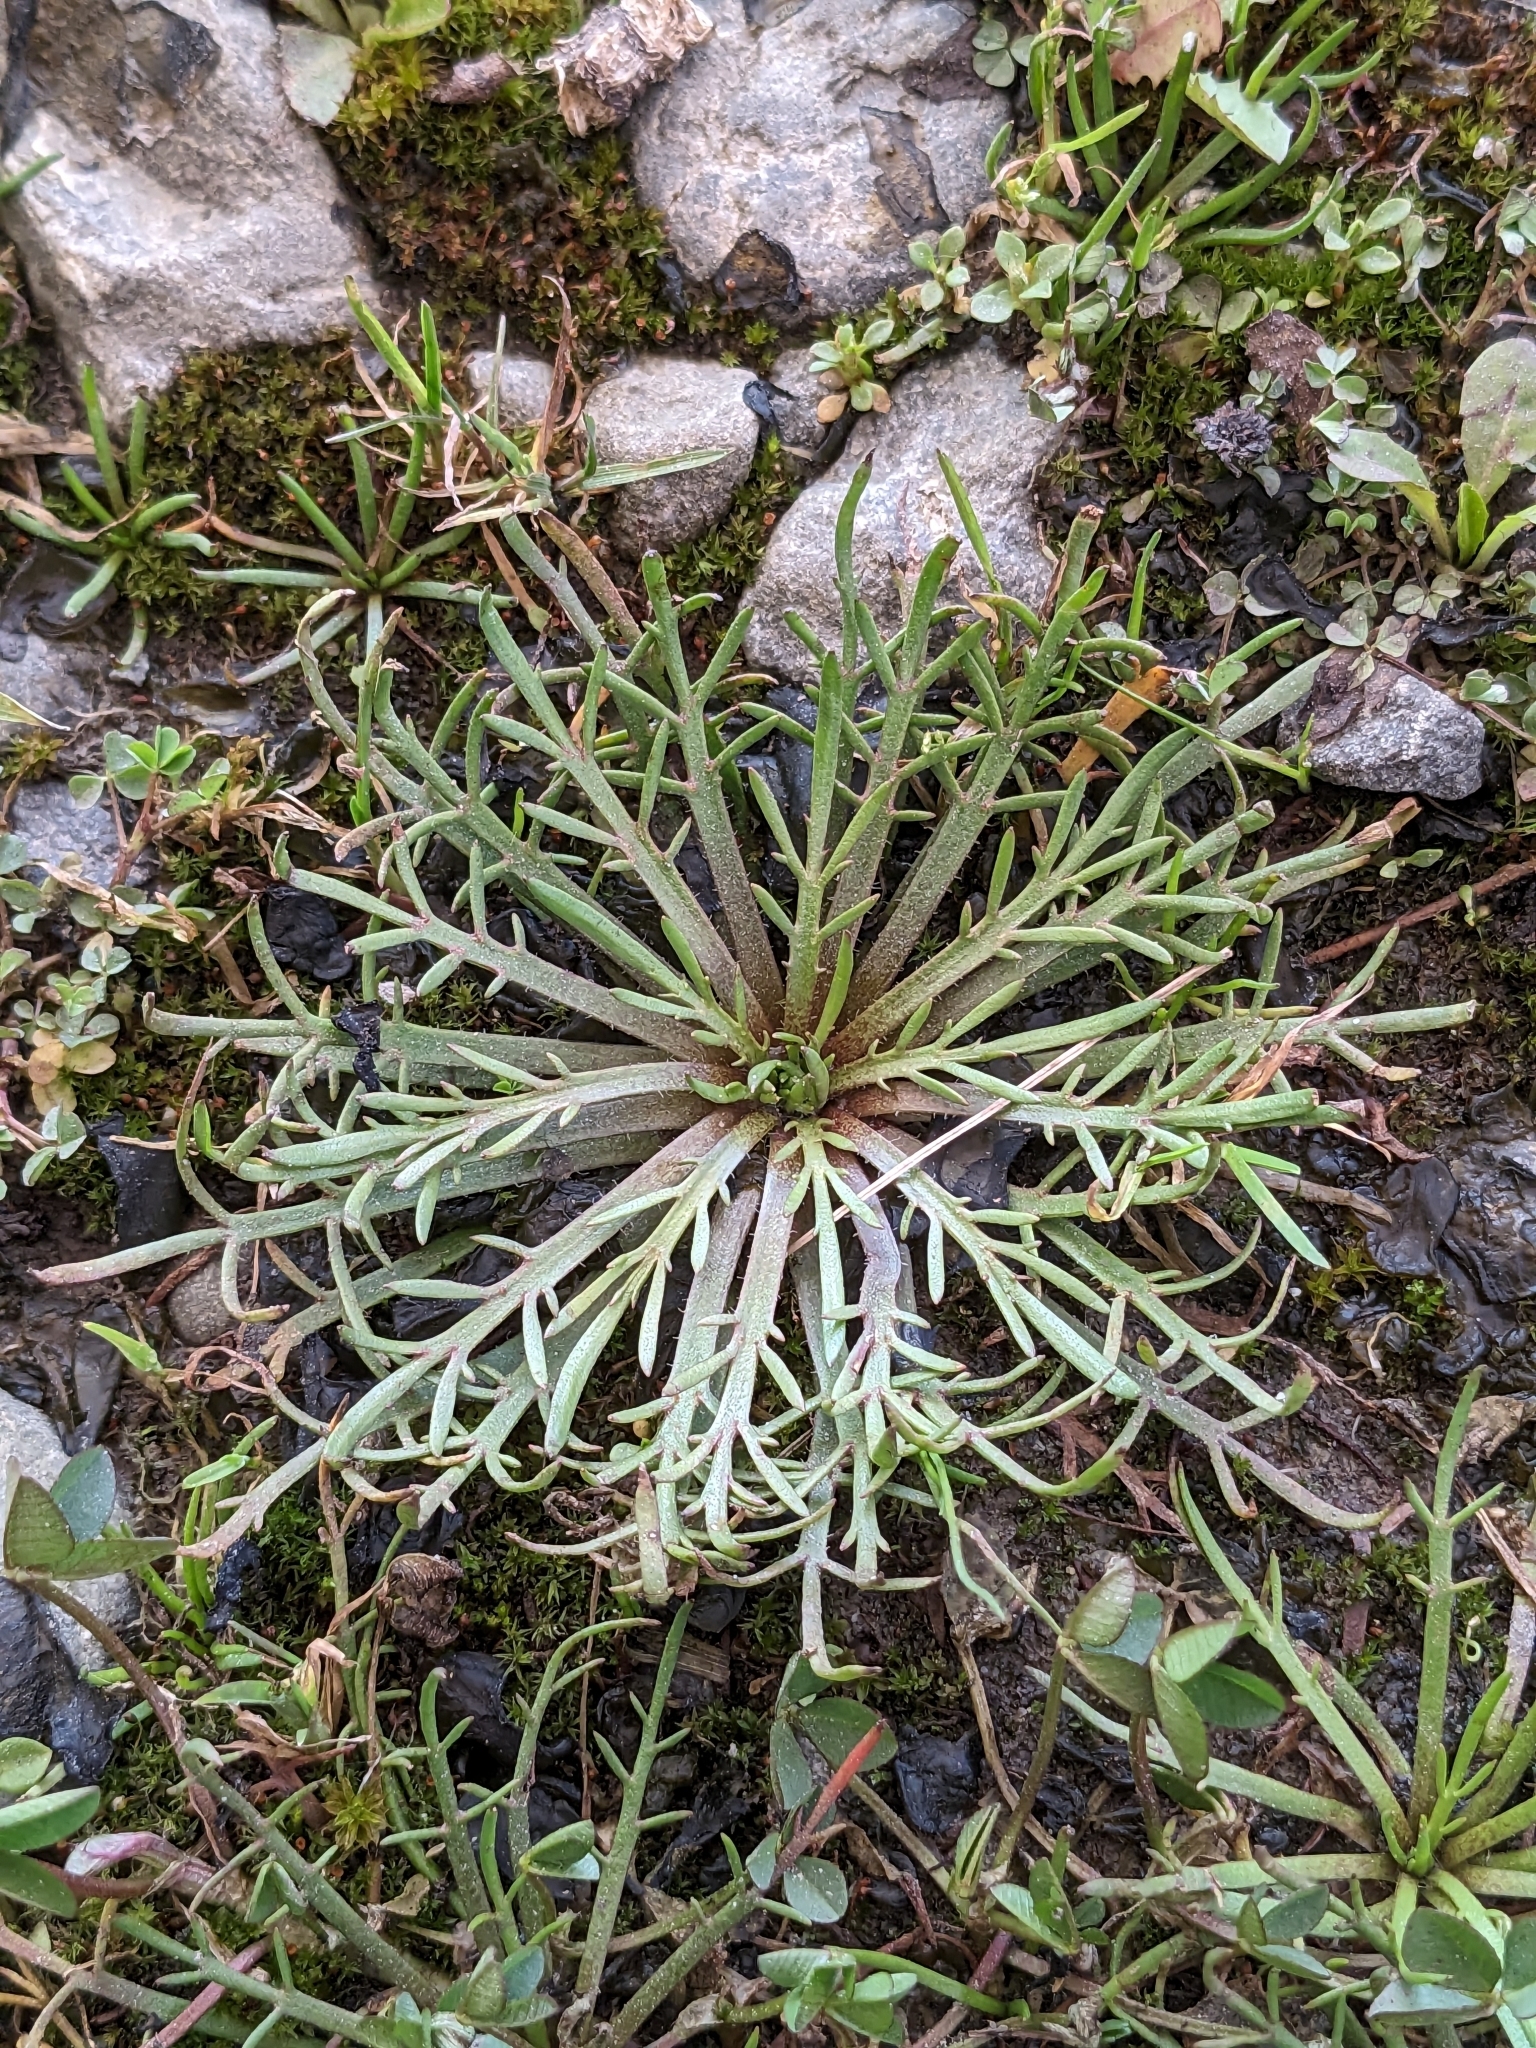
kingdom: Plantae
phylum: Tracheophyta
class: Magnoliopsida
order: Lamiales
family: Plantaginaceae
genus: Plantago
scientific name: Plantago coronopus
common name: Buck's-horn plantain
